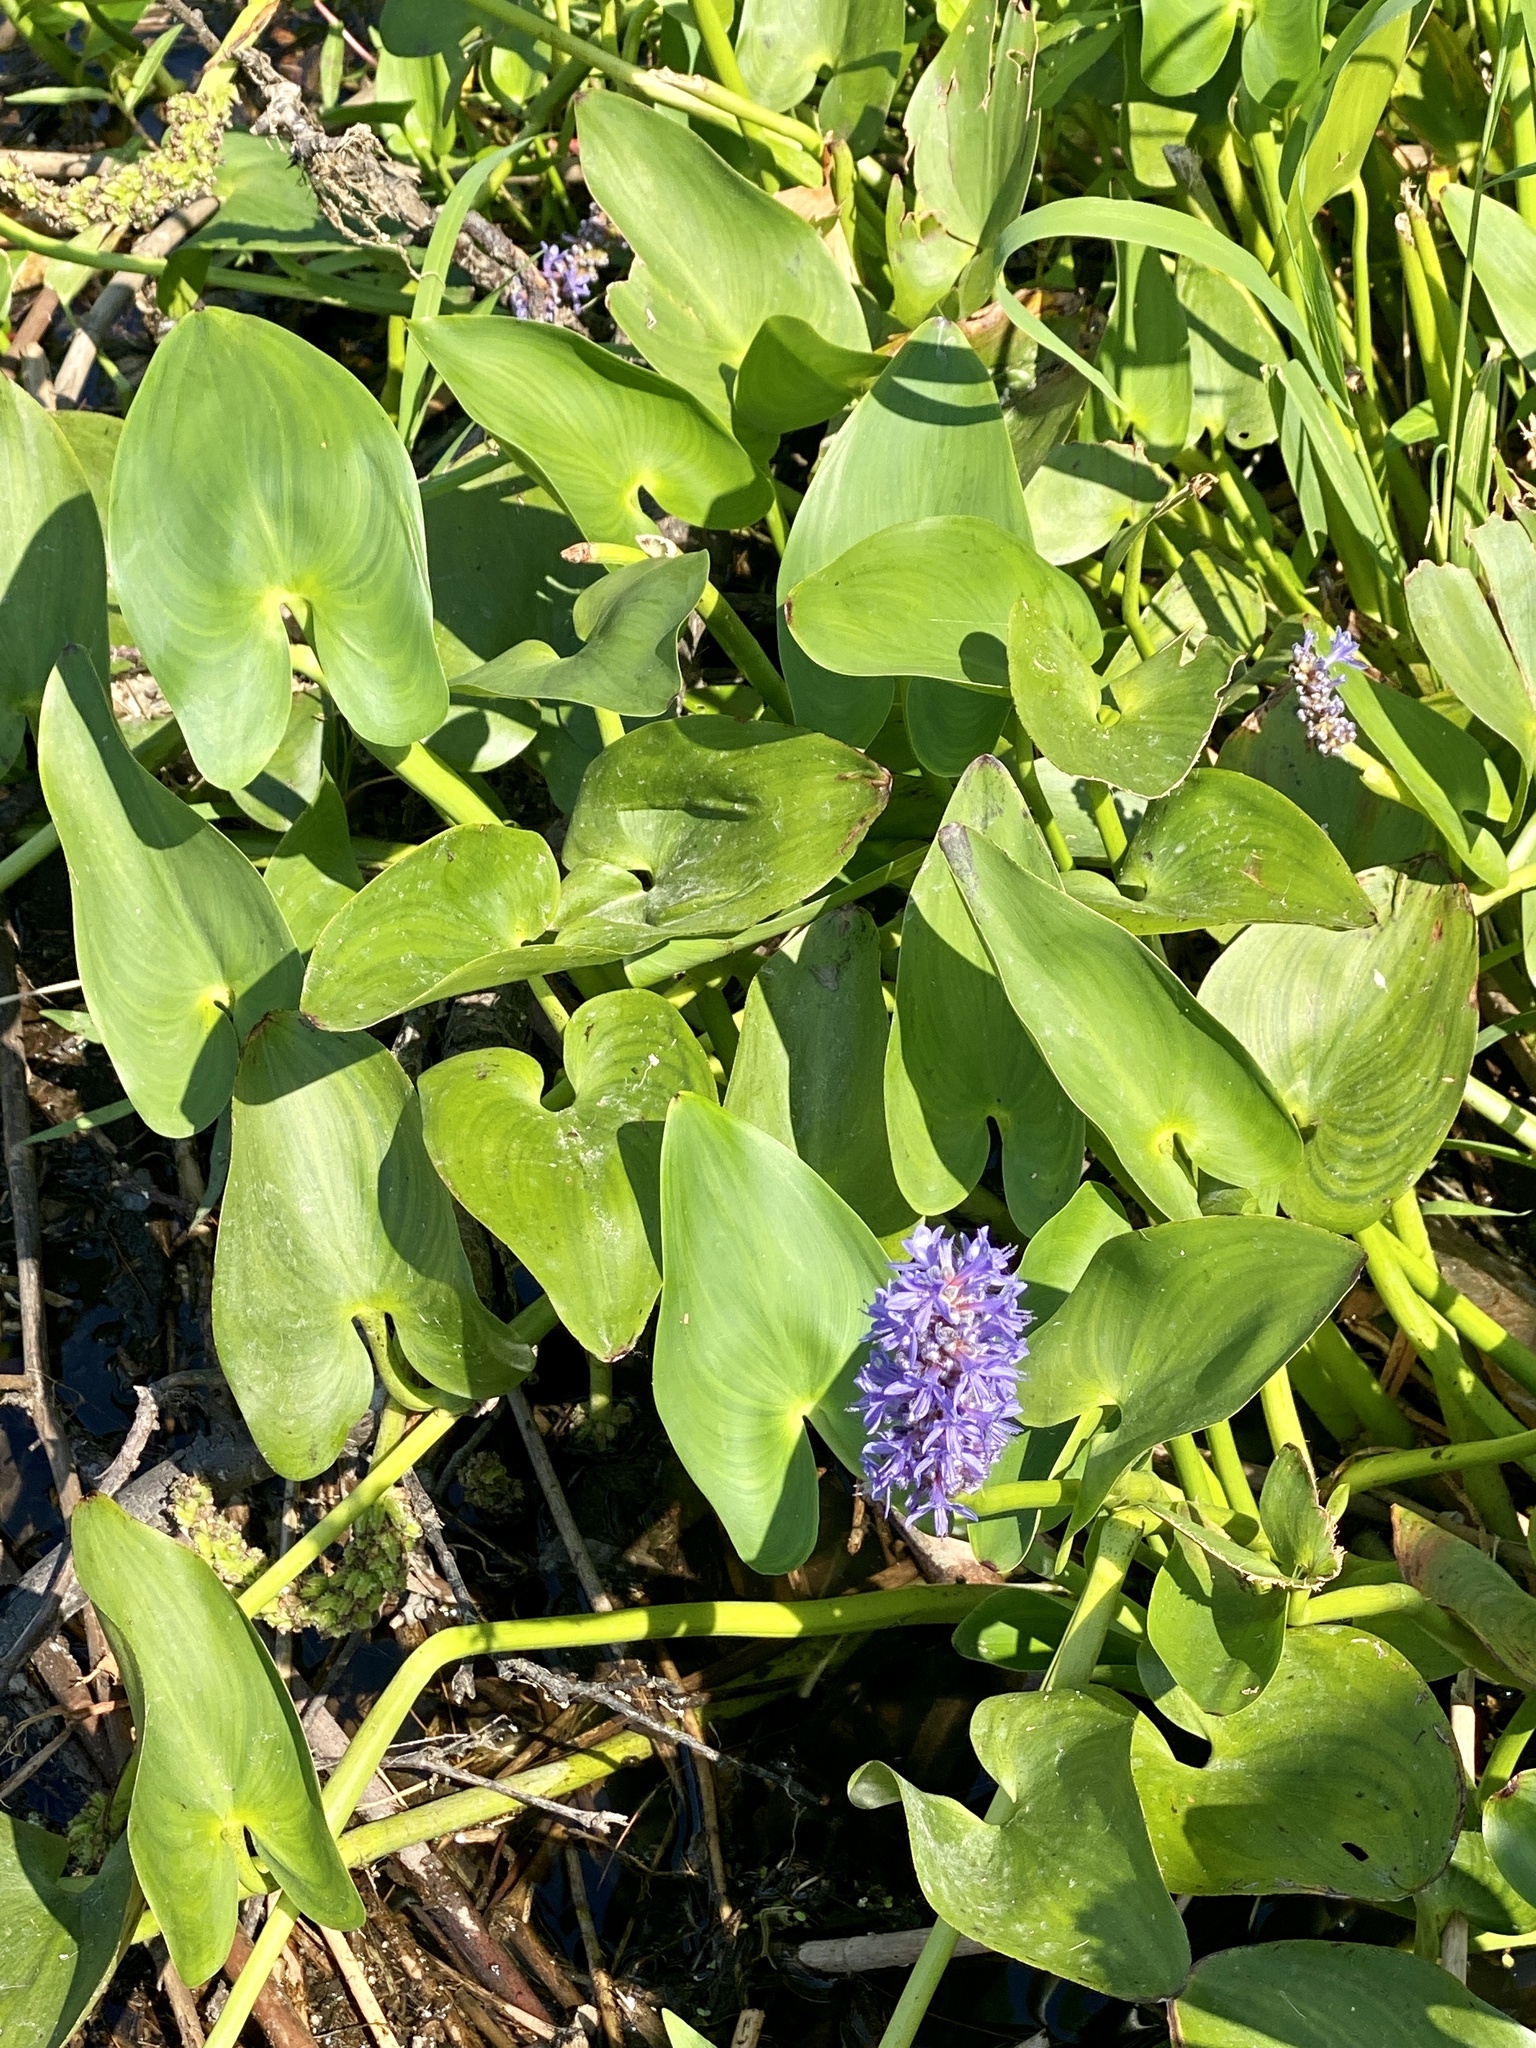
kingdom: Plantae
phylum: Tracheophyta
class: Liliopsida
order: Commelinales
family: Pontederiaceae
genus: Pontederia
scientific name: Pontederia cordata
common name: Pickerelweed
